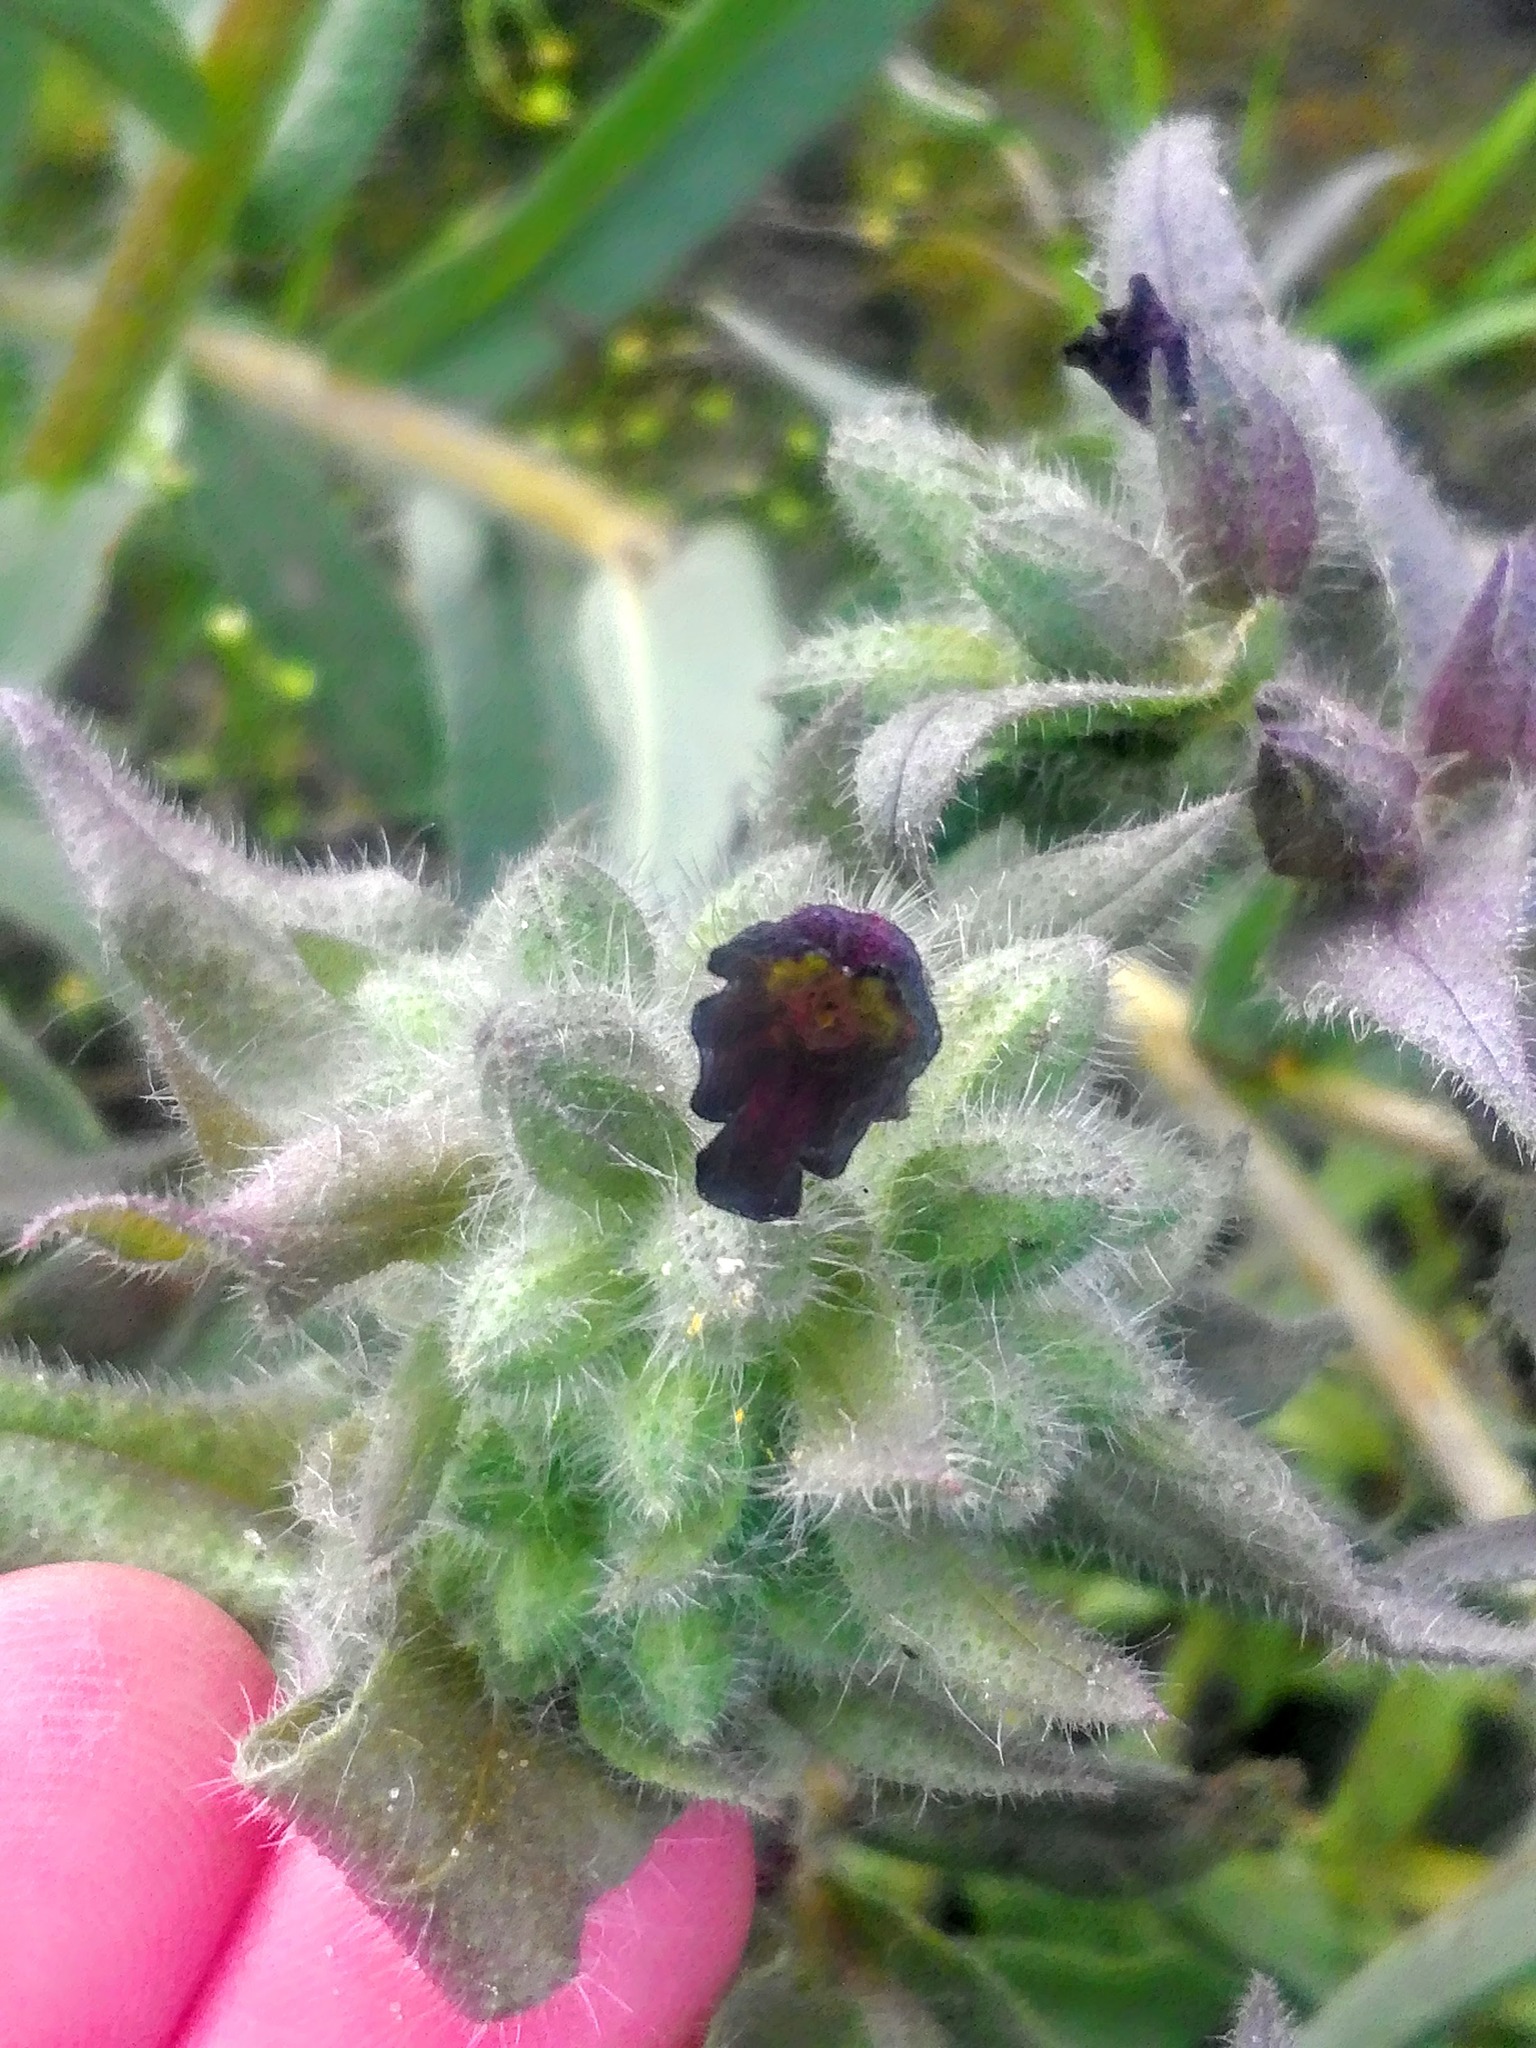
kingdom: Plantae
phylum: Tracheophyta
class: Magnoliopsida
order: Boraginales
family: Boraginaceae
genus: Nonea
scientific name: Nonea pulla
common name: Brown nonea
